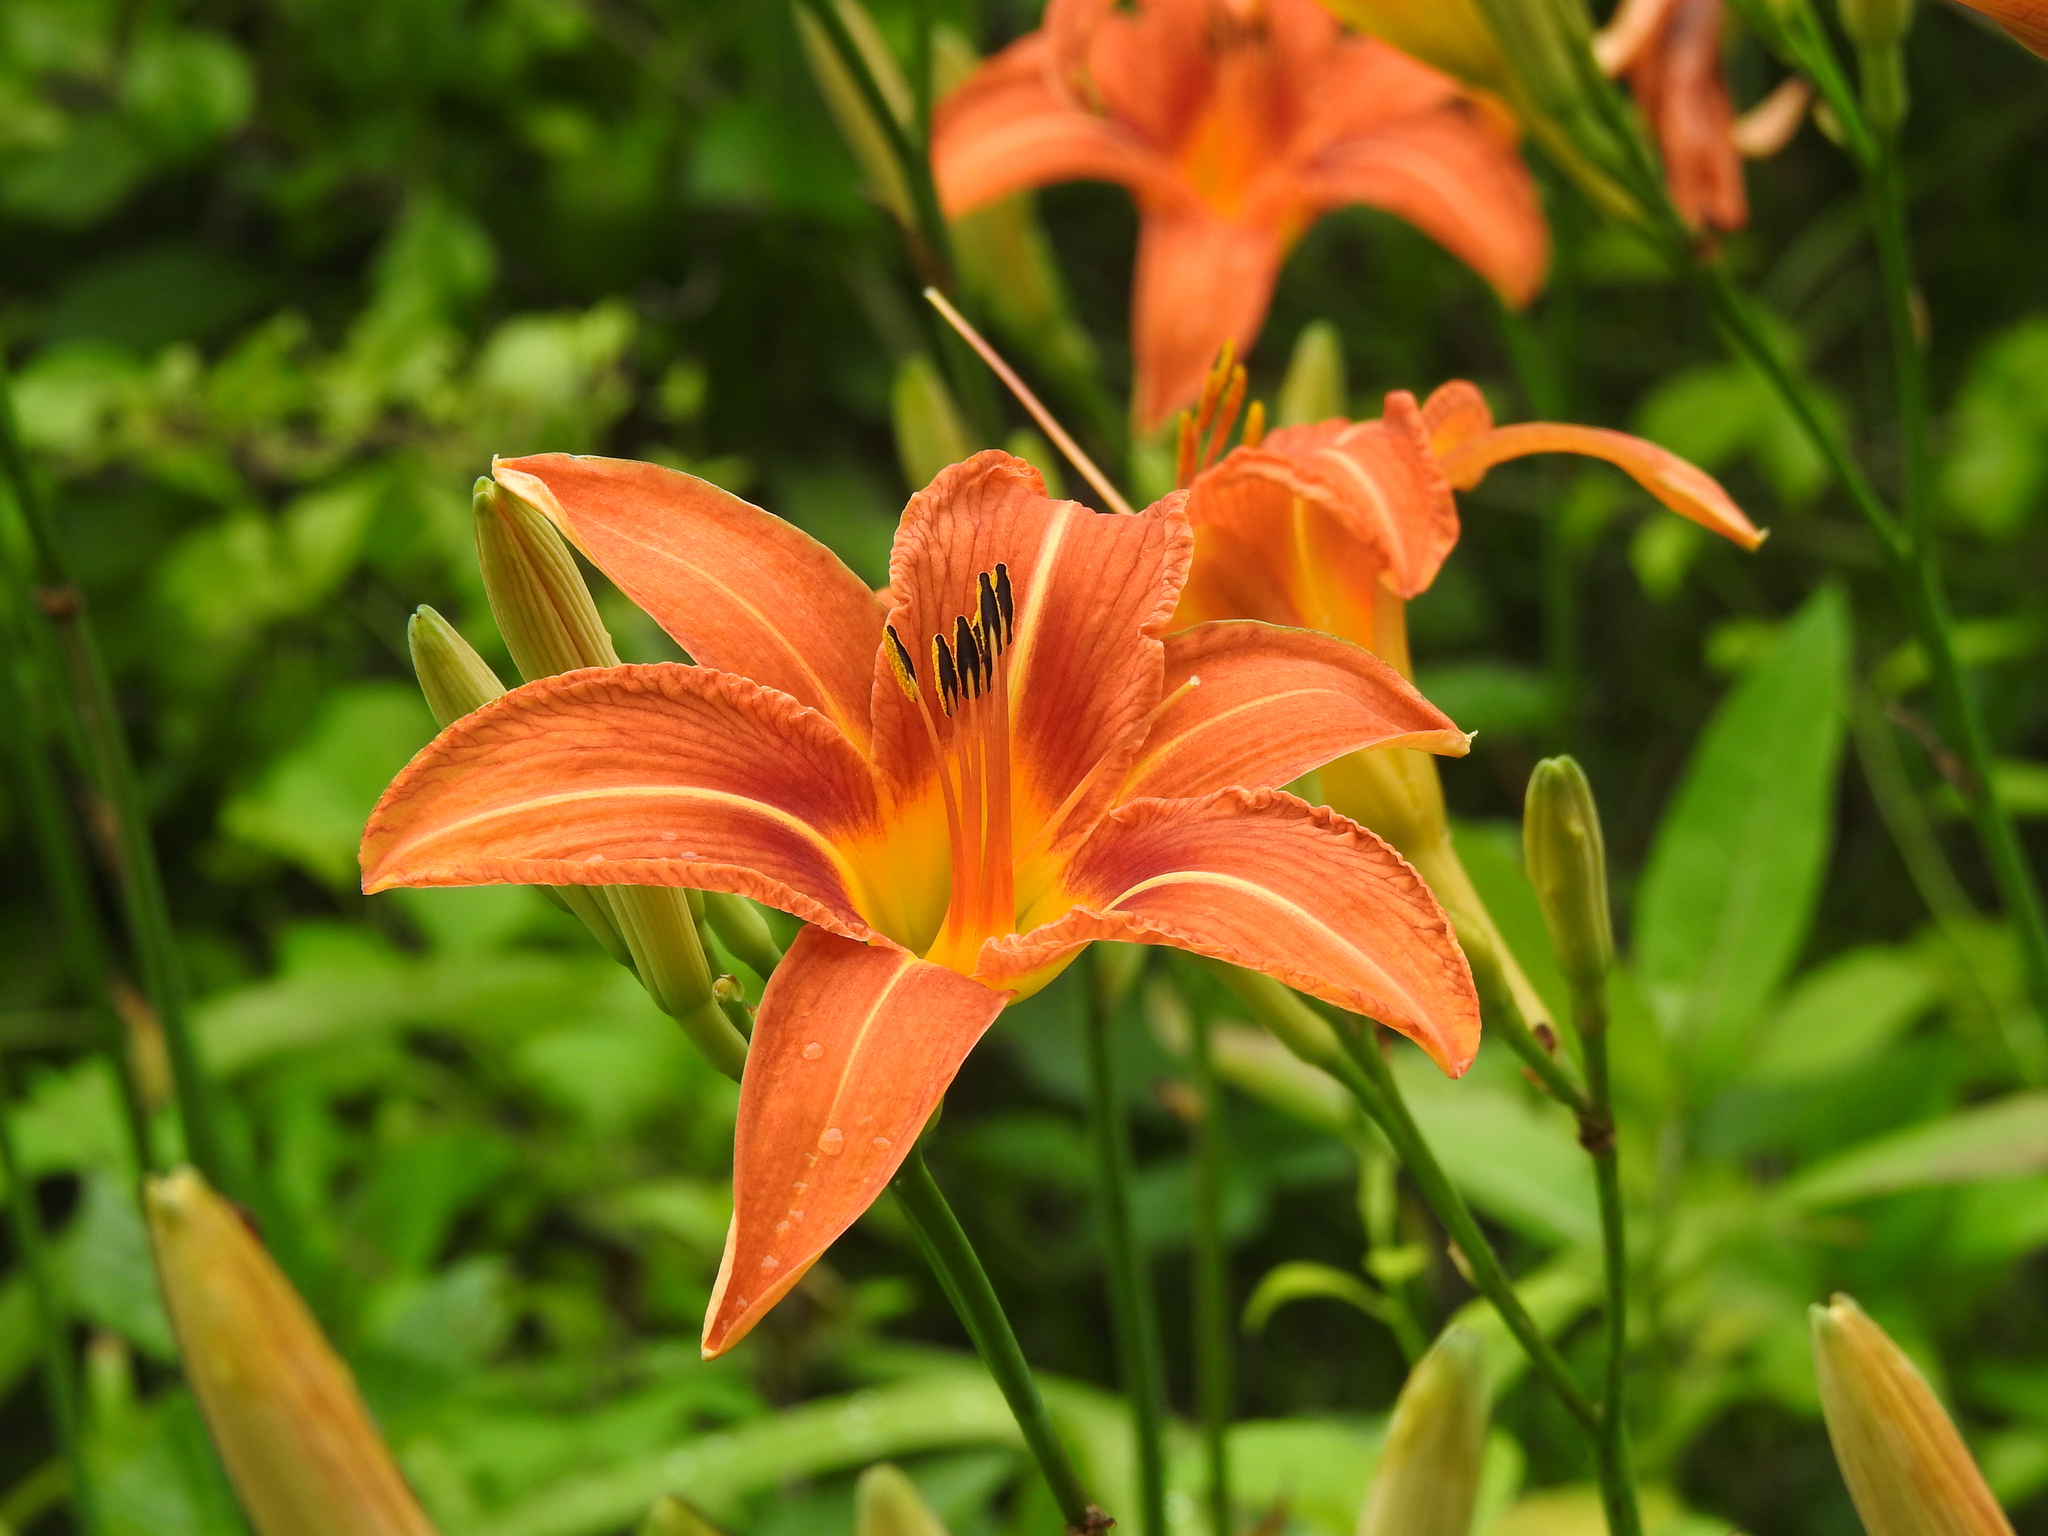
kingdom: Plantae
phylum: Tracheophyta
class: Liliopsida
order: Asparagales
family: Asphodelaceae
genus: Hemerocallis
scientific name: Hemerocallis fulva
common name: Orange day-lily
